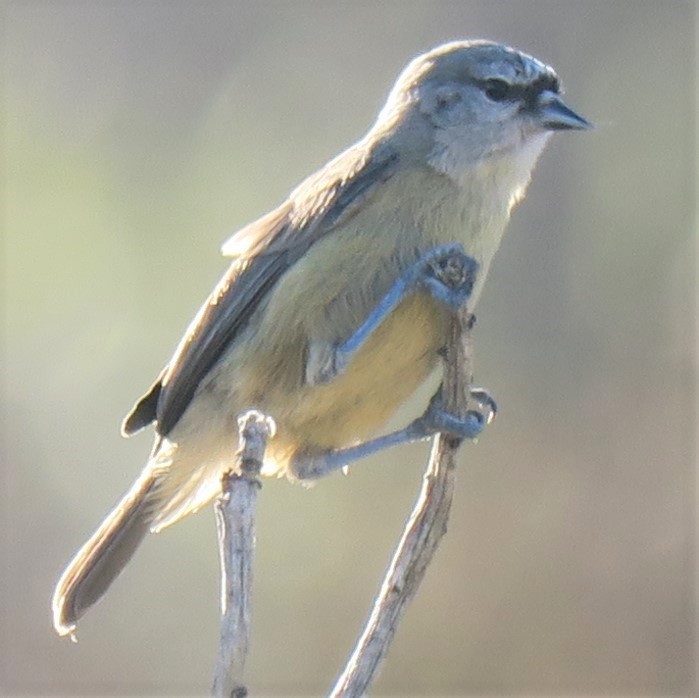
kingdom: Animalia
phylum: Chordata
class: Aves
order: Passeriformes
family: Remizidae
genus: Anthoscopus
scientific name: Anthoscopus minutus
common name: Cape penduline tit
